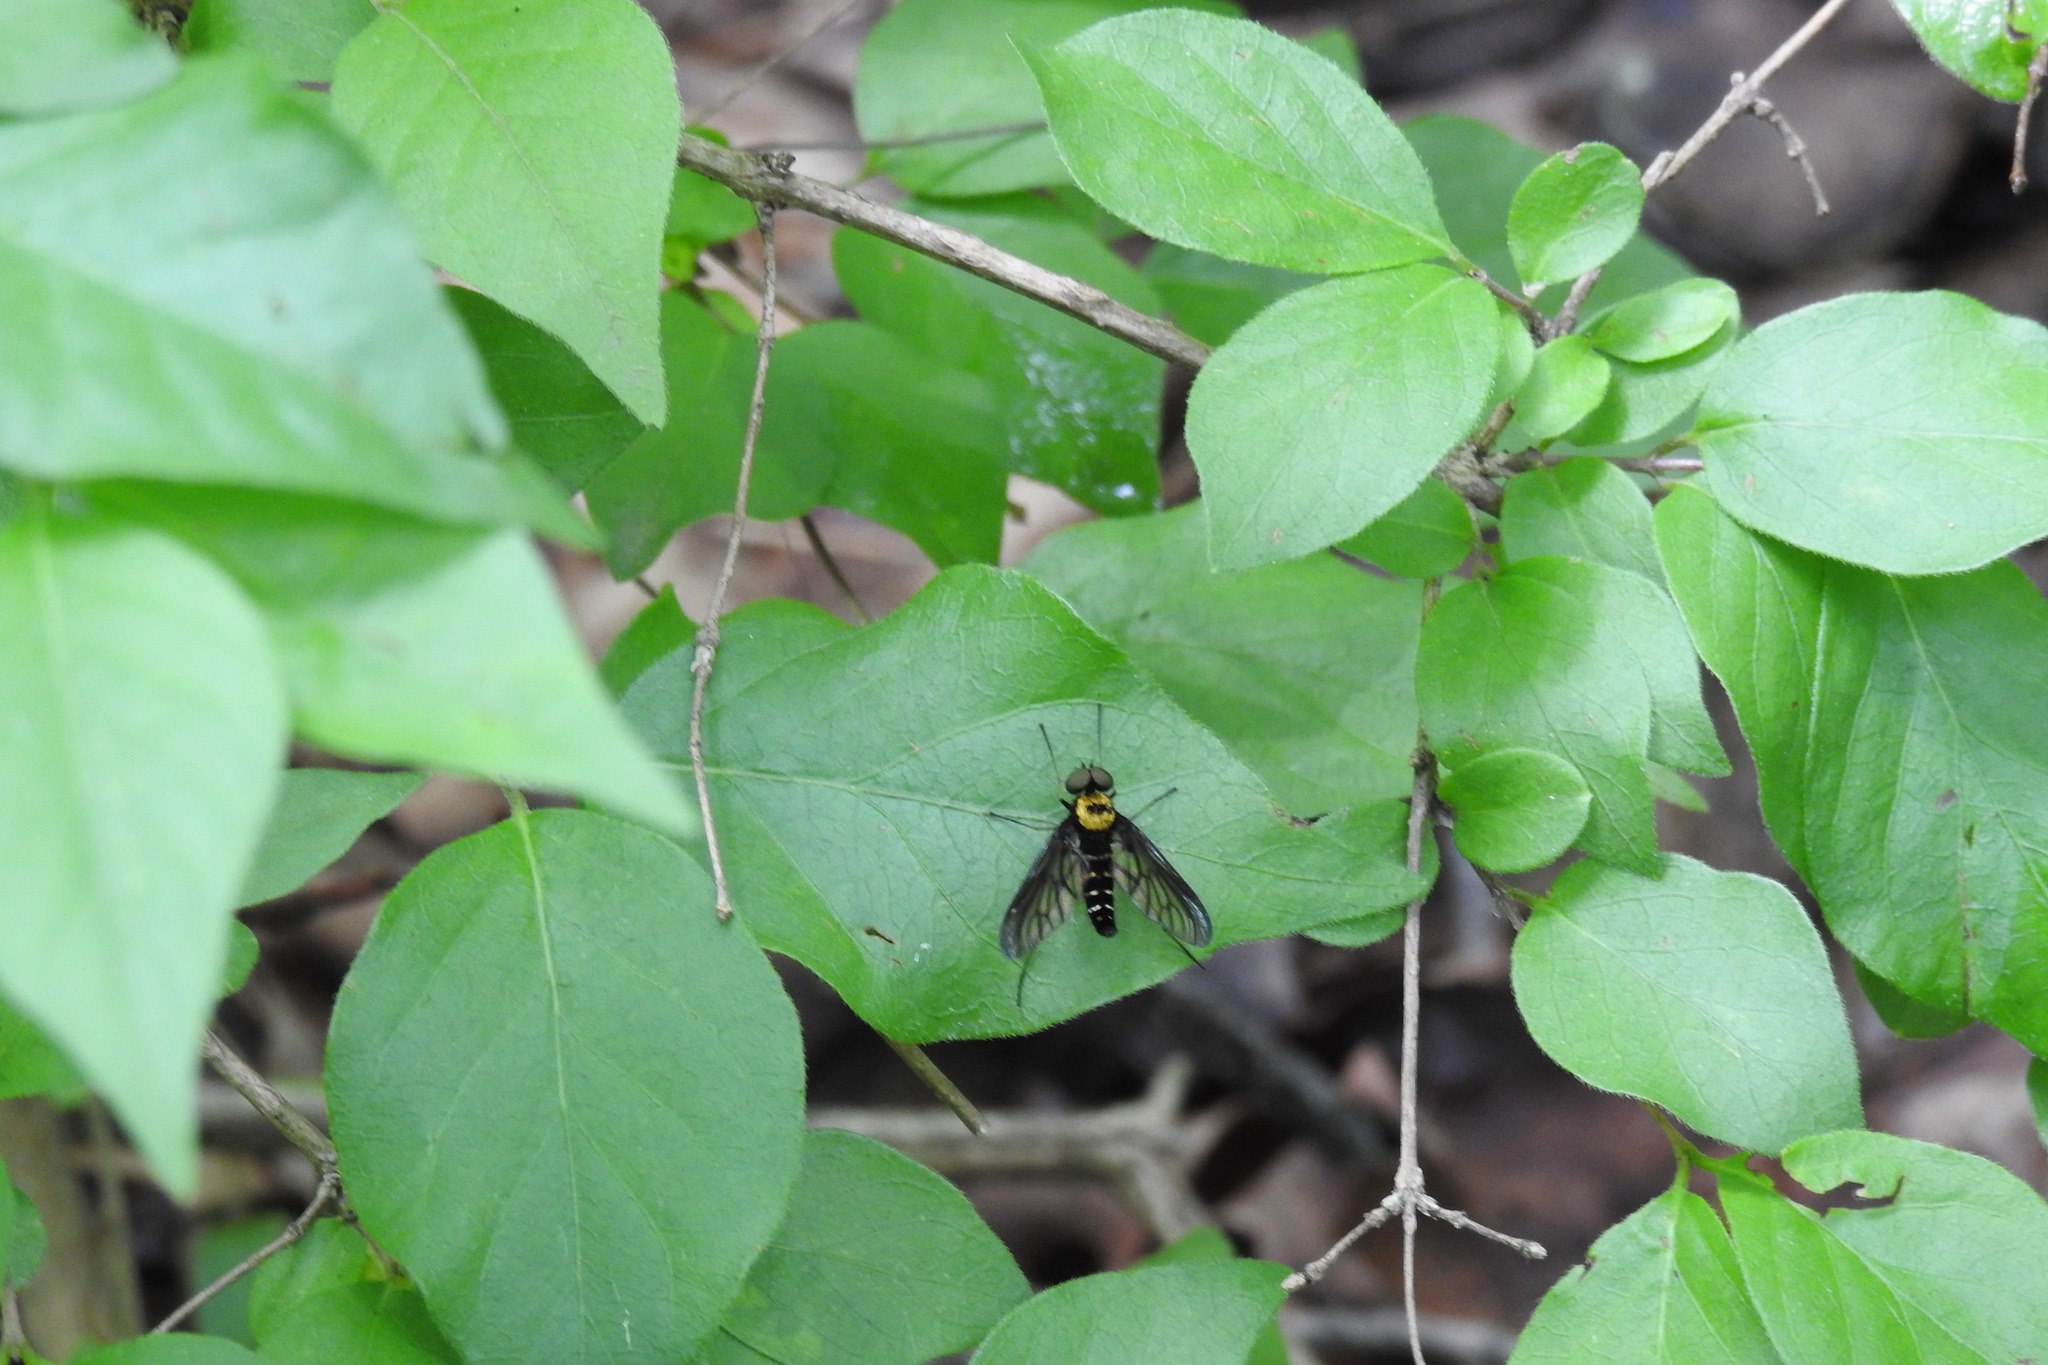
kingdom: Animalia
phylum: Arthropoda
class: Insecta
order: Diptera
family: Rhagionidae
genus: Chrysopilus
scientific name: Chrysopilus thoracicus
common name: Golden-backed snipe fly
